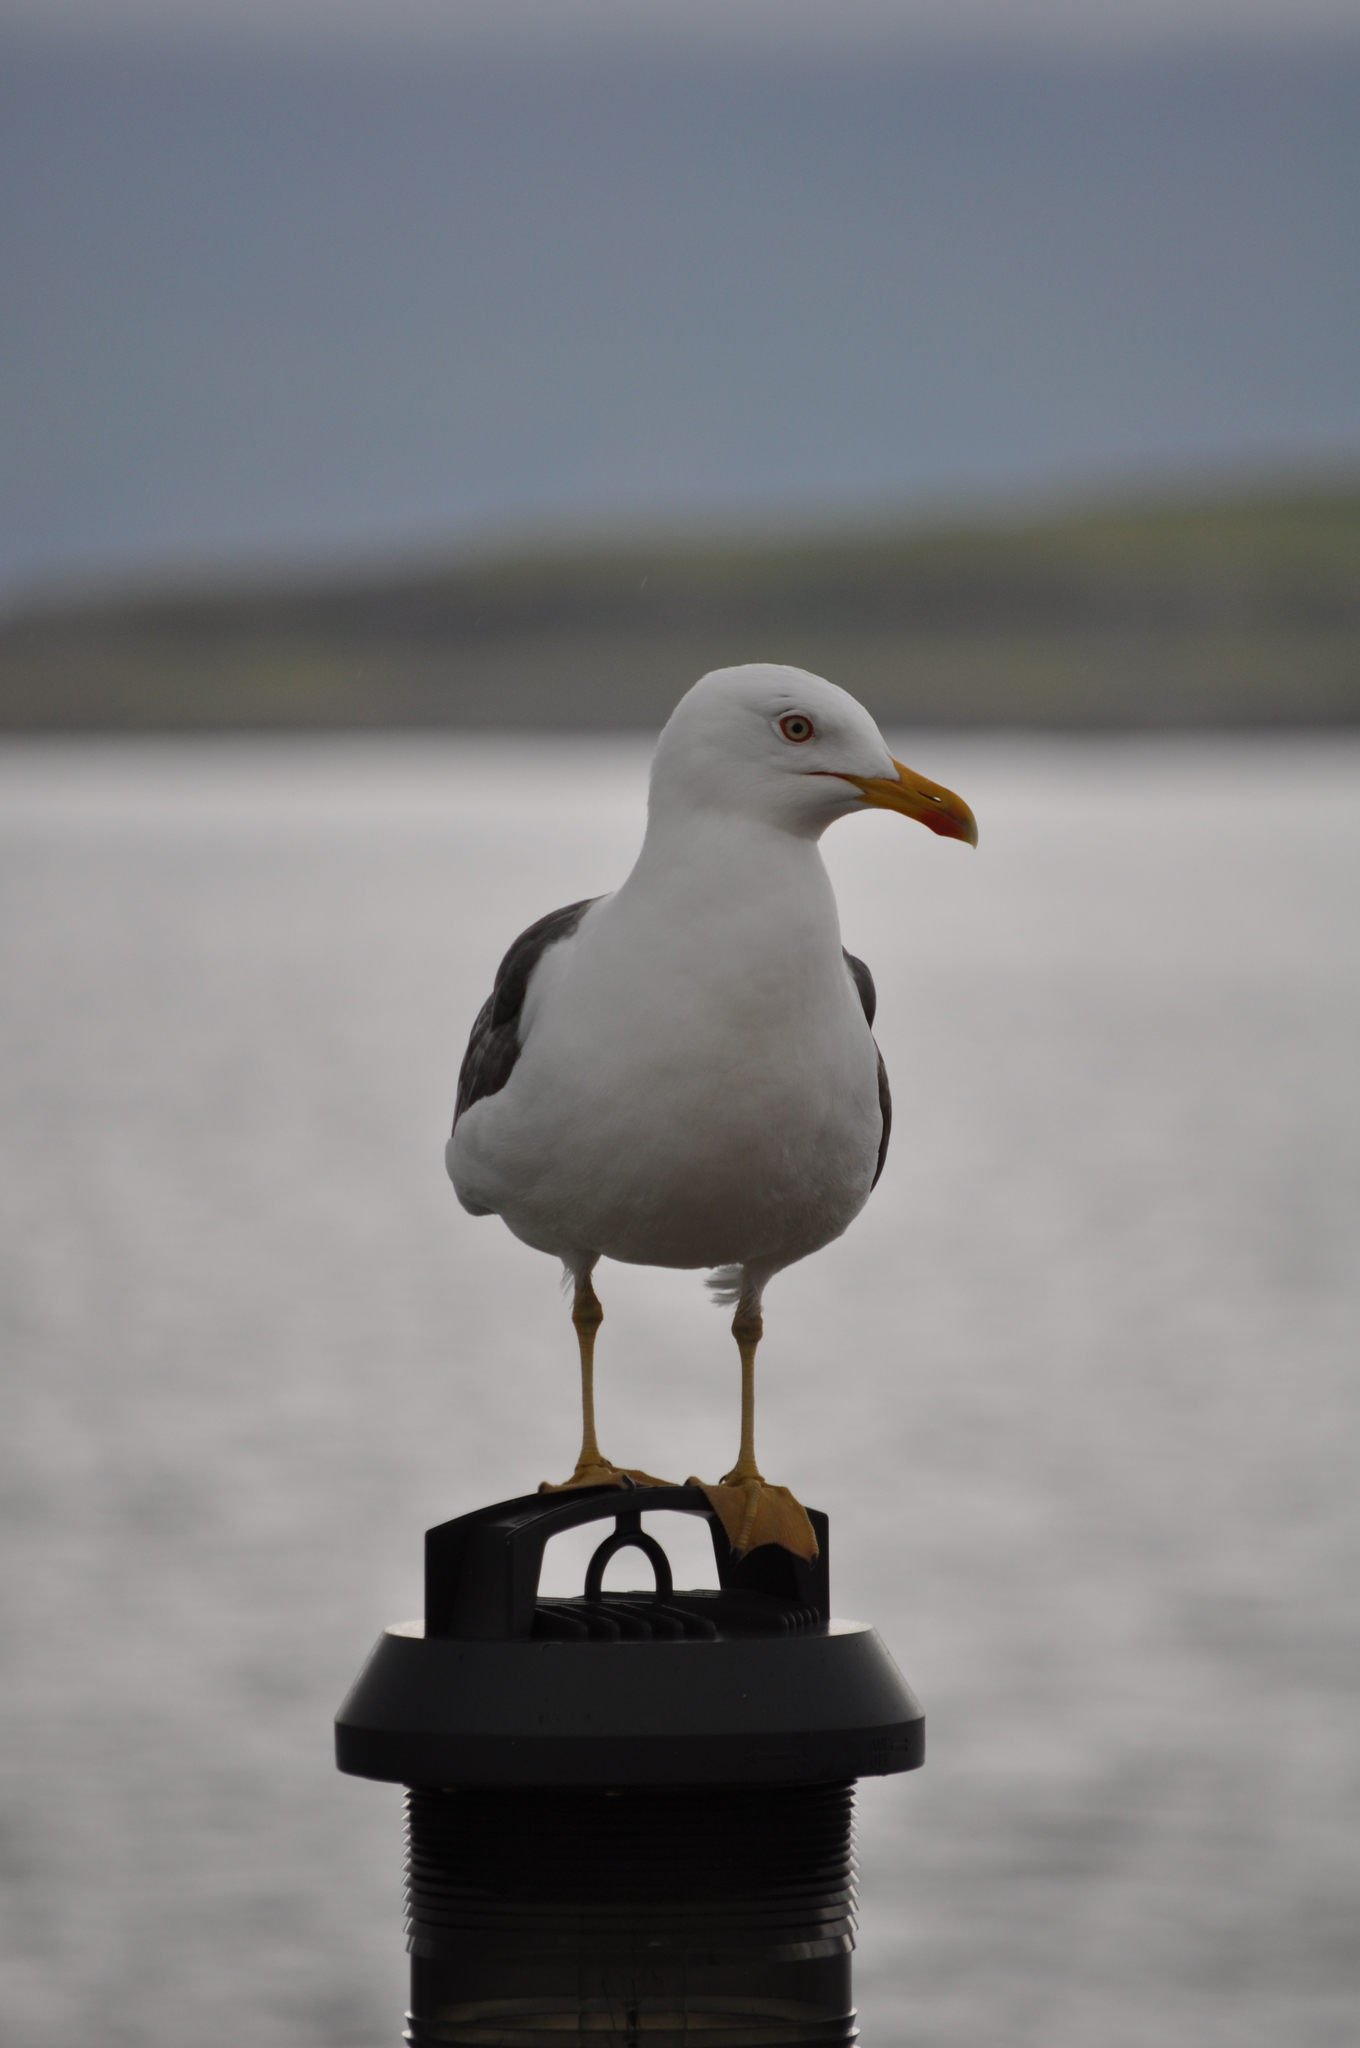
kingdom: Animalia
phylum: Chordata
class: Aves
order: Charadriiformes
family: Laridae
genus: Larus
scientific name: Larus fuscus
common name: Lesser black-backed gull
